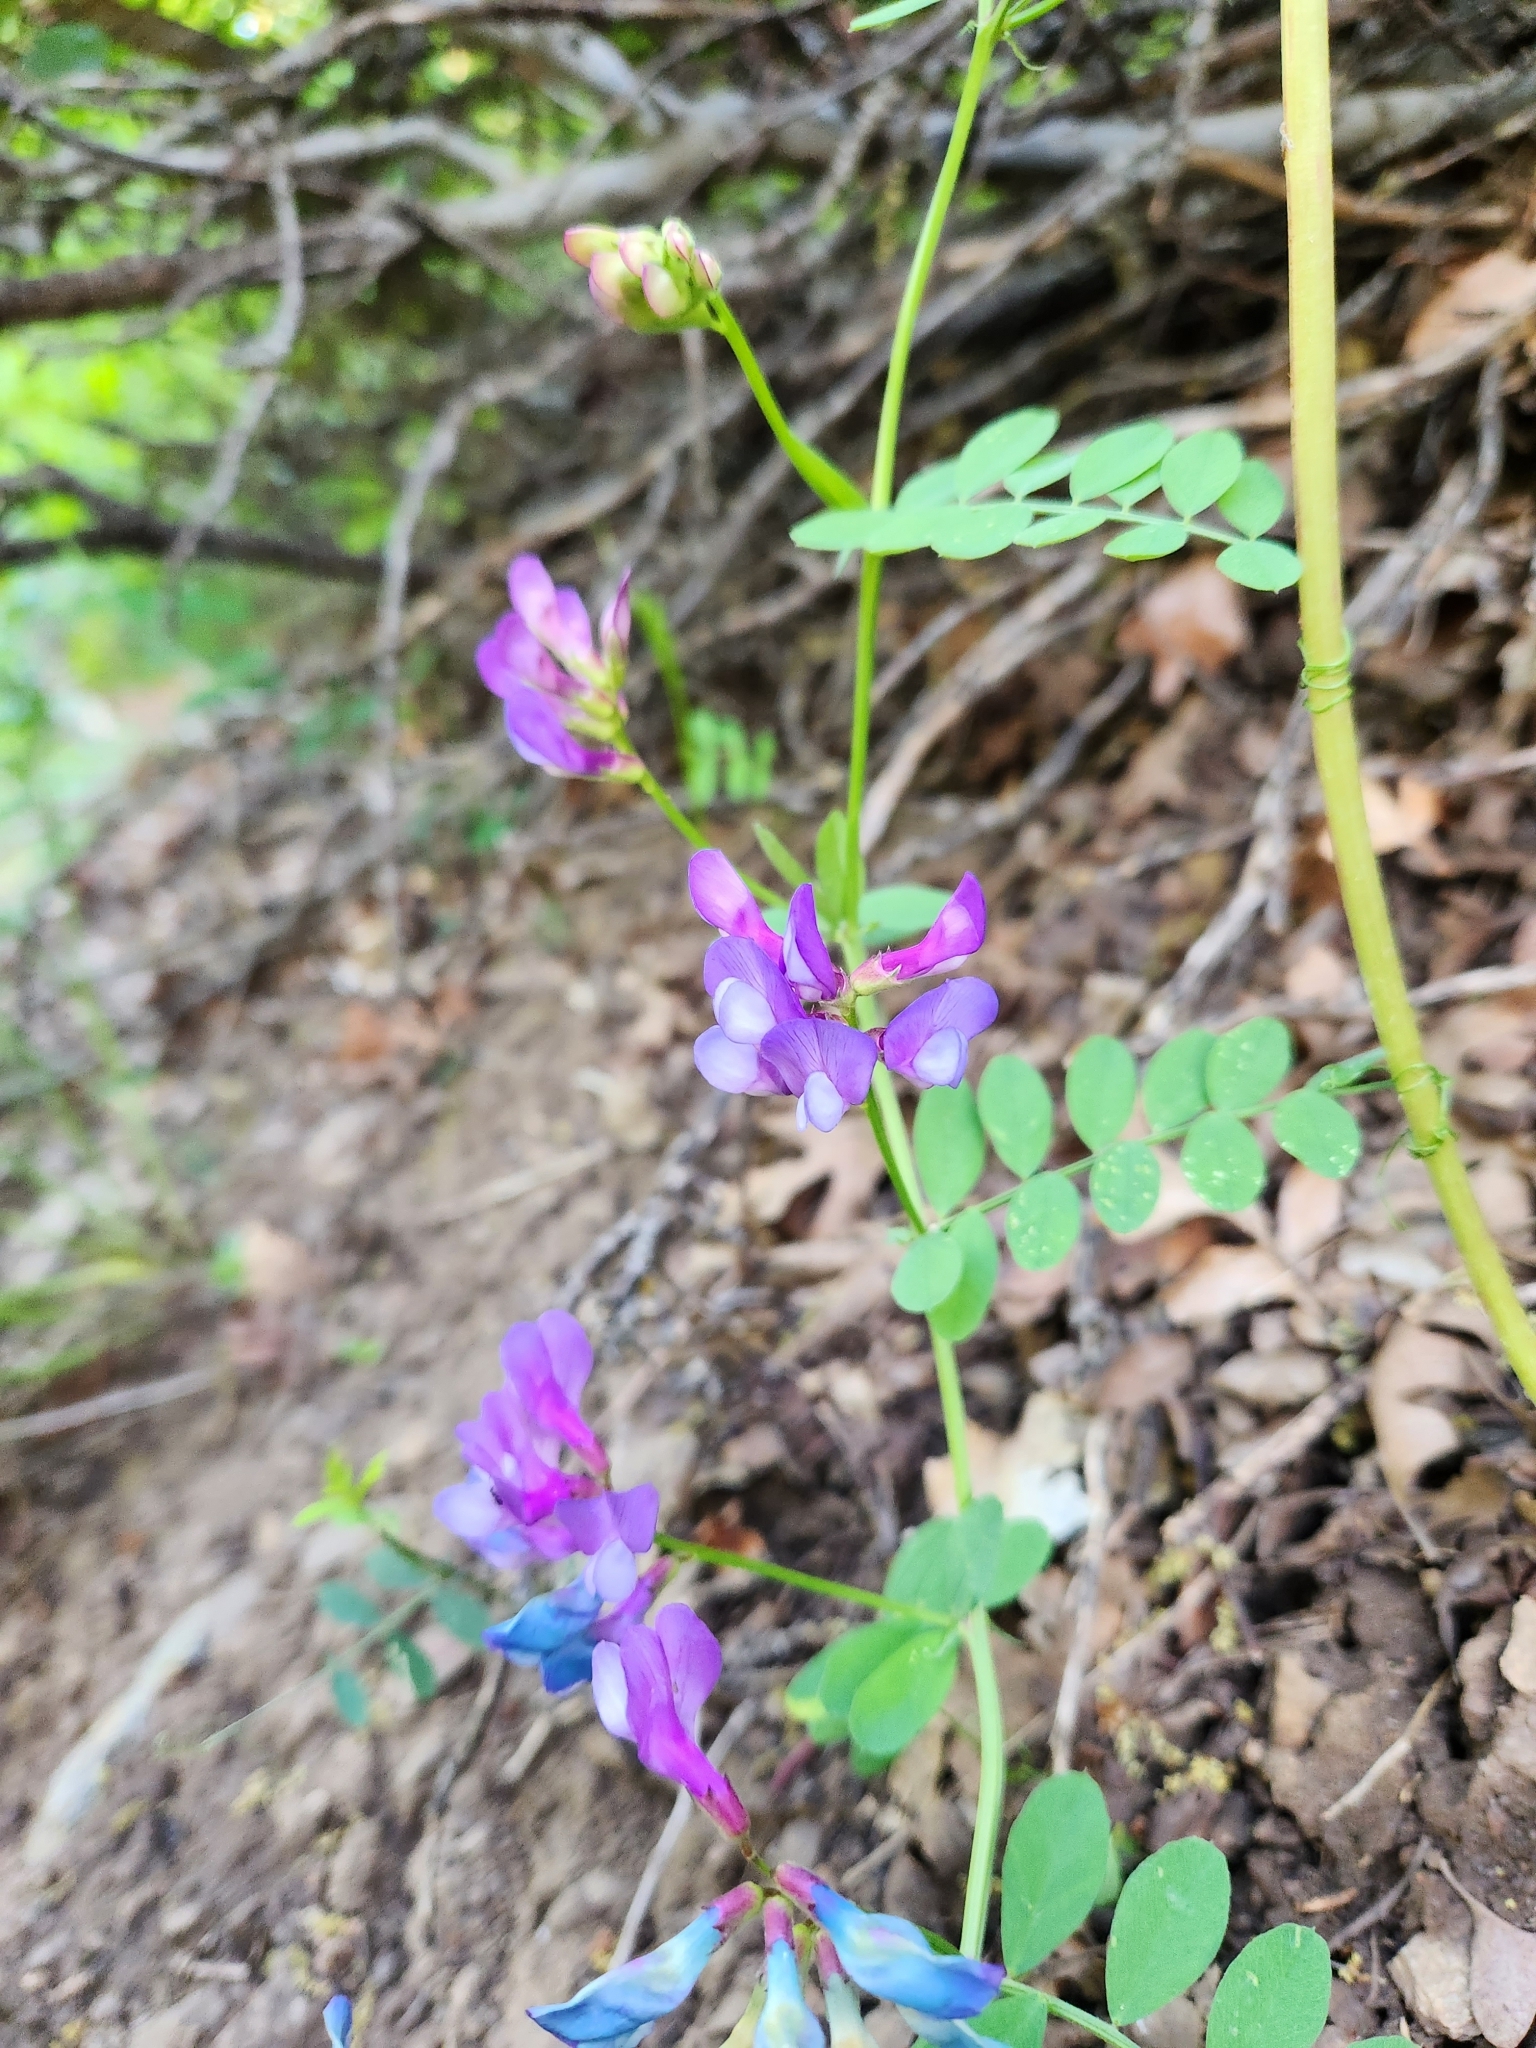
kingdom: Plantae
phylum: Tracheophyta
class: Magnoliopsida
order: Fabales
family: Fabaceae
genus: Vicia
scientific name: Vicia americana
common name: American vetch
